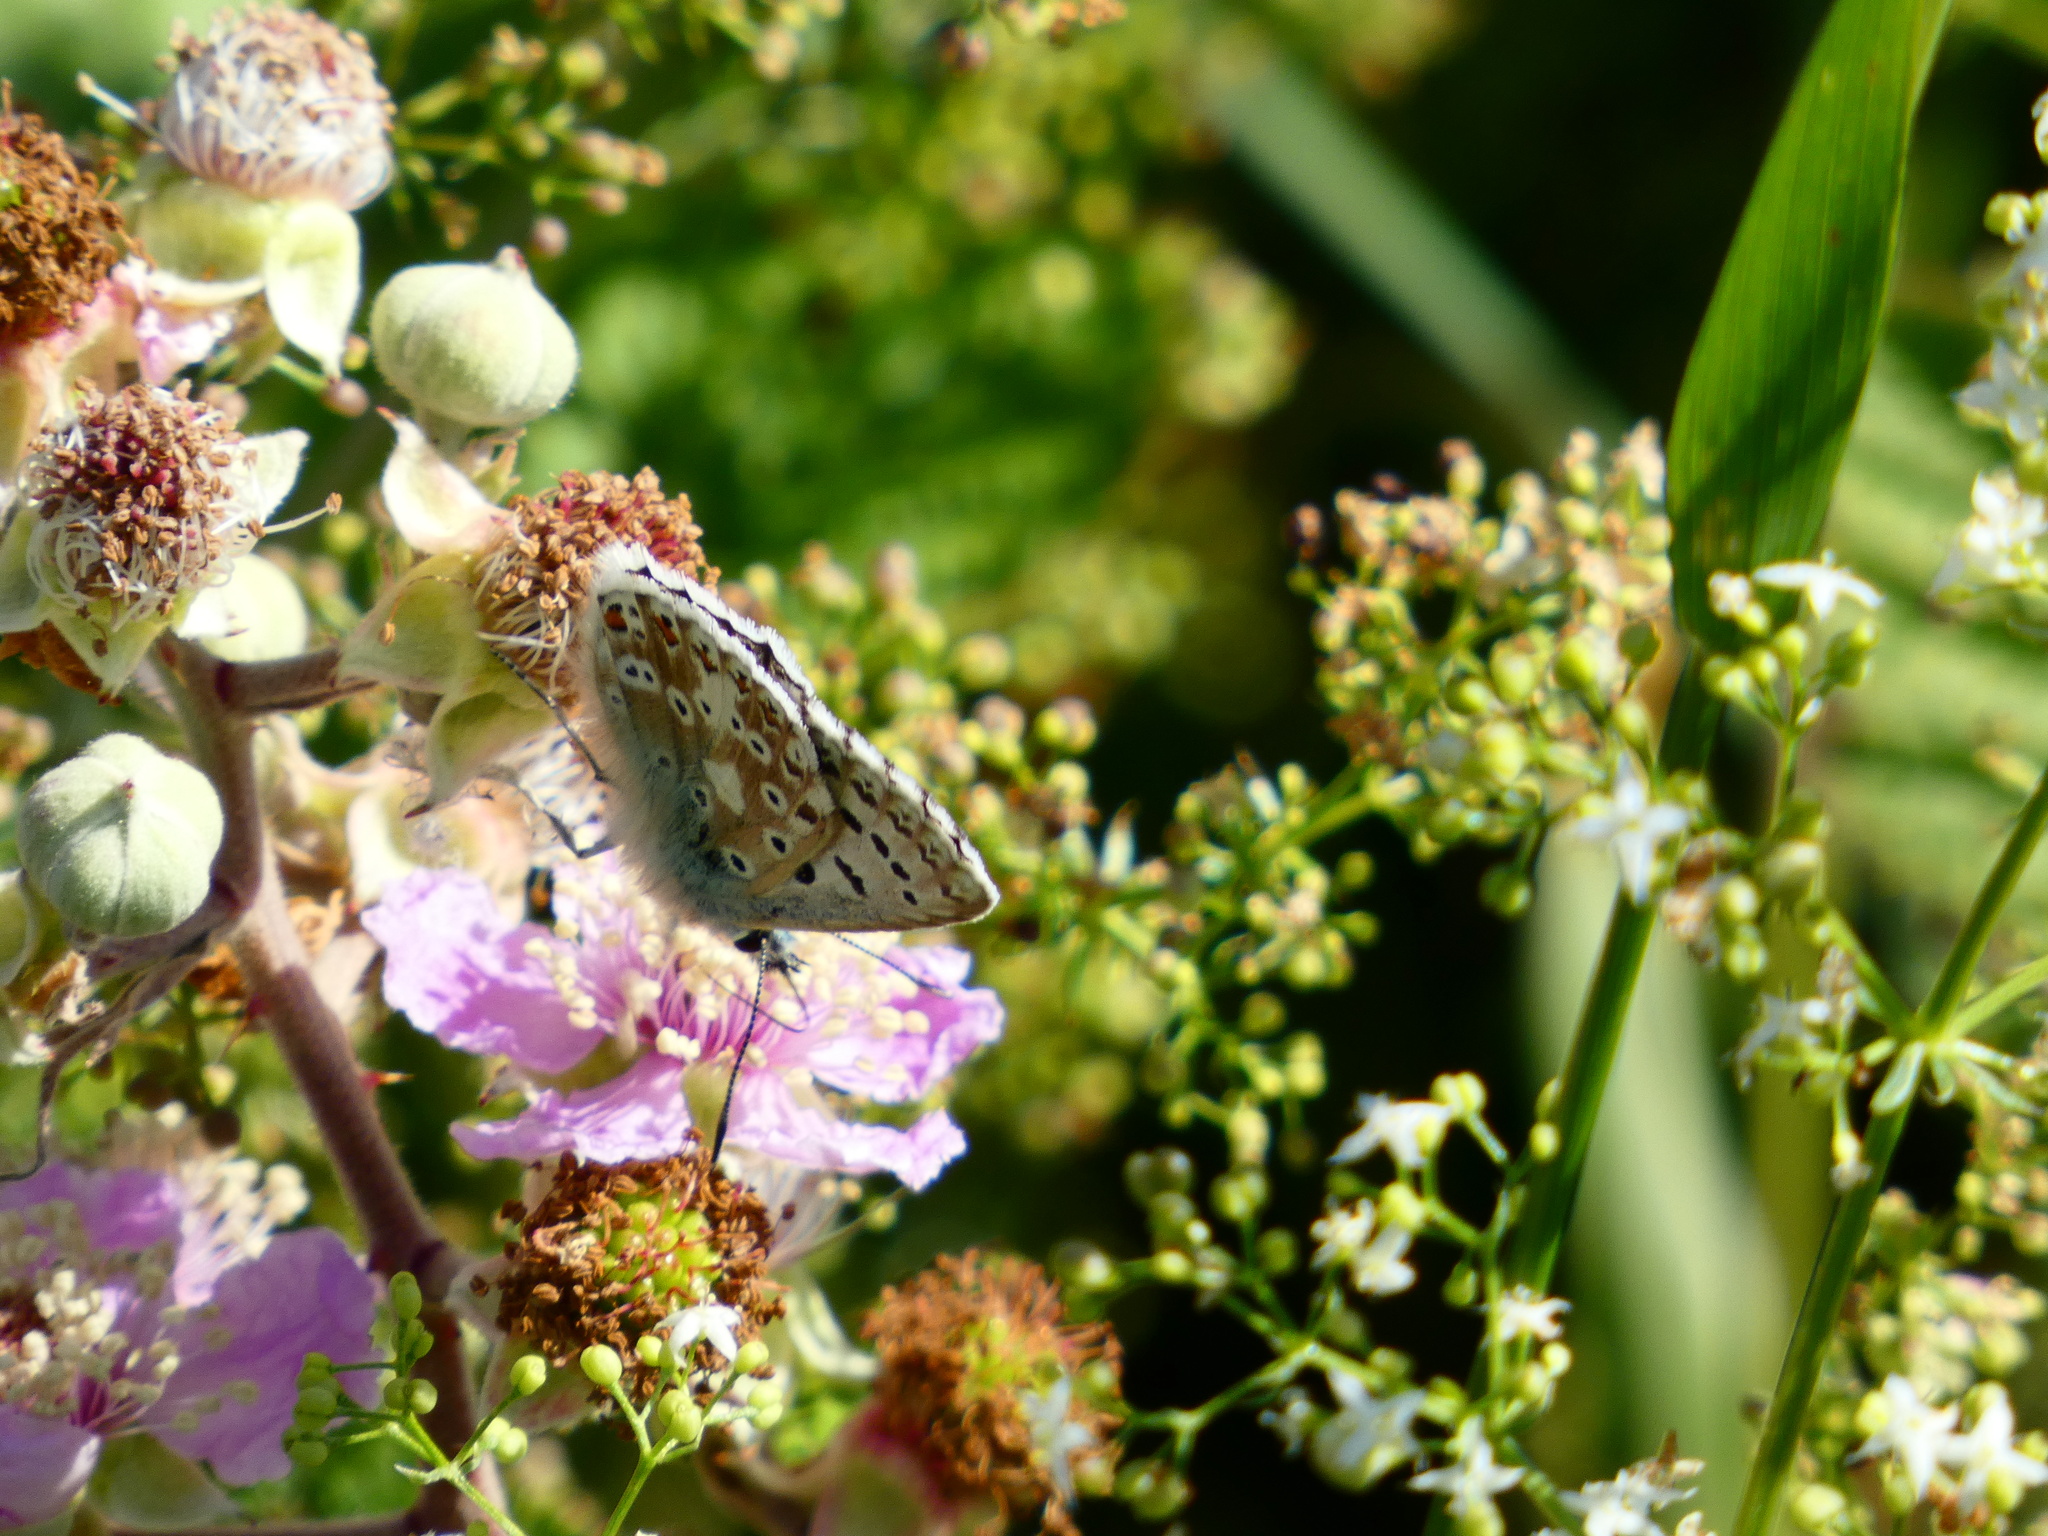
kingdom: Animalia
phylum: Arthropoda
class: Insecta
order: Lepidoptera
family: Lycaenidae
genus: Lysandra
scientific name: Lysandra coridon
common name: Chalkhill blue
